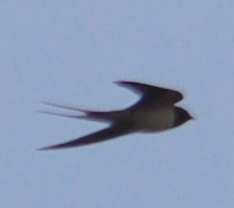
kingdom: Animalia
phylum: Chordata
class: Aves
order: Passeriformes
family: Hirundinidae
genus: Hirundo
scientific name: Hirundo rustica
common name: Barn swallow
